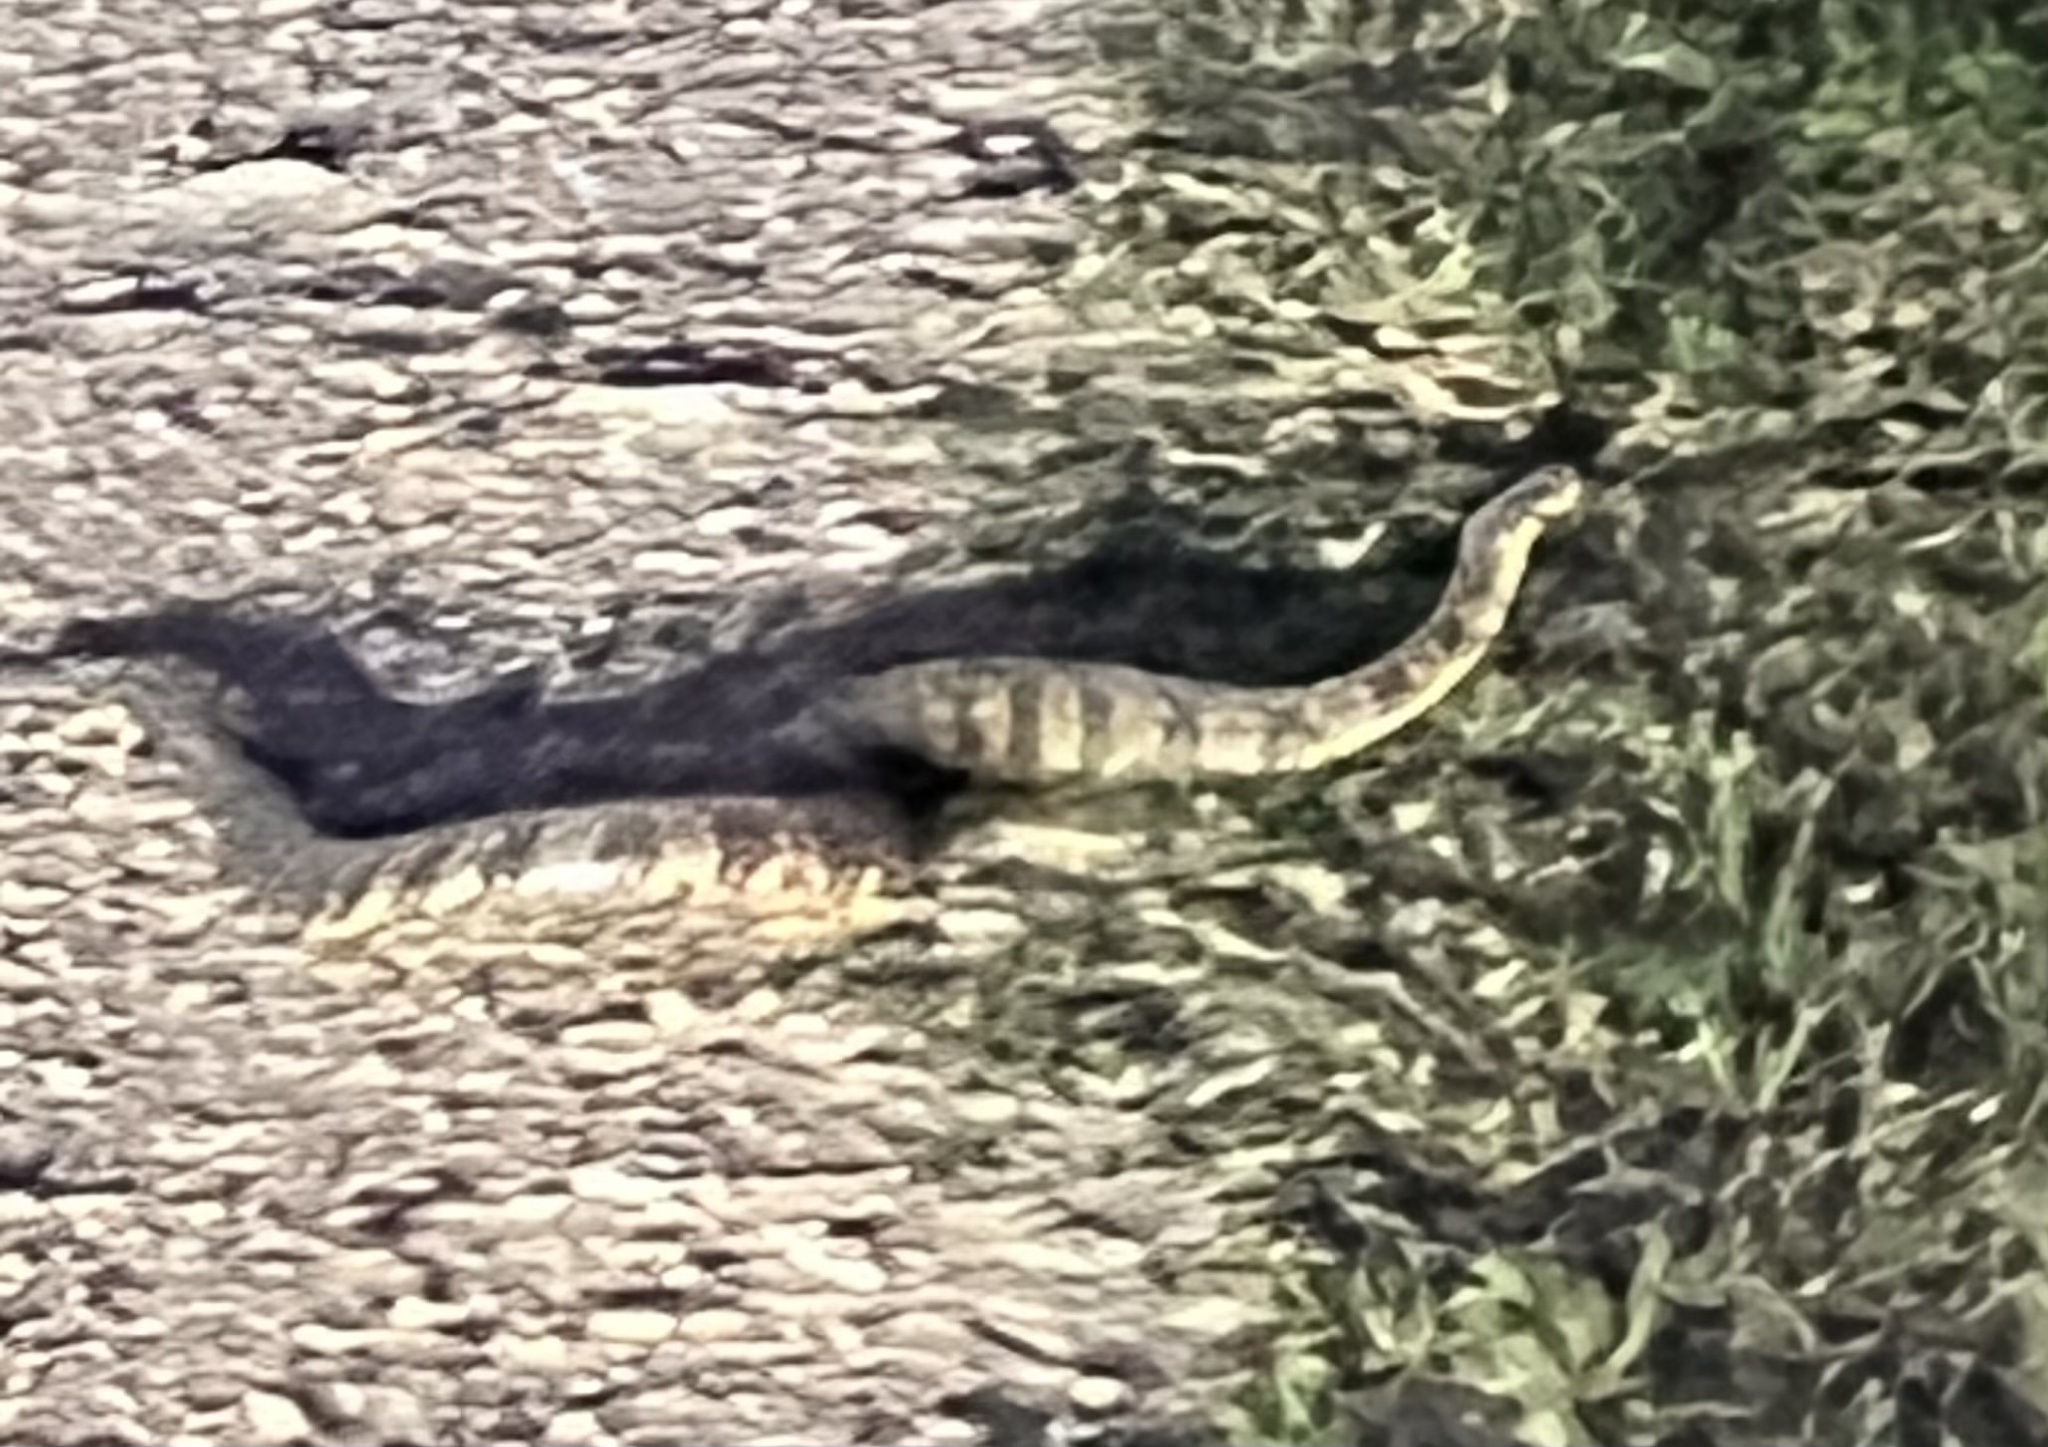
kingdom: Animalia
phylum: Chordata
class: Squamata
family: Colubridae
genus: Nerodia
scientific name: Nerodia rhombifer
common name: Diamondback water snake
